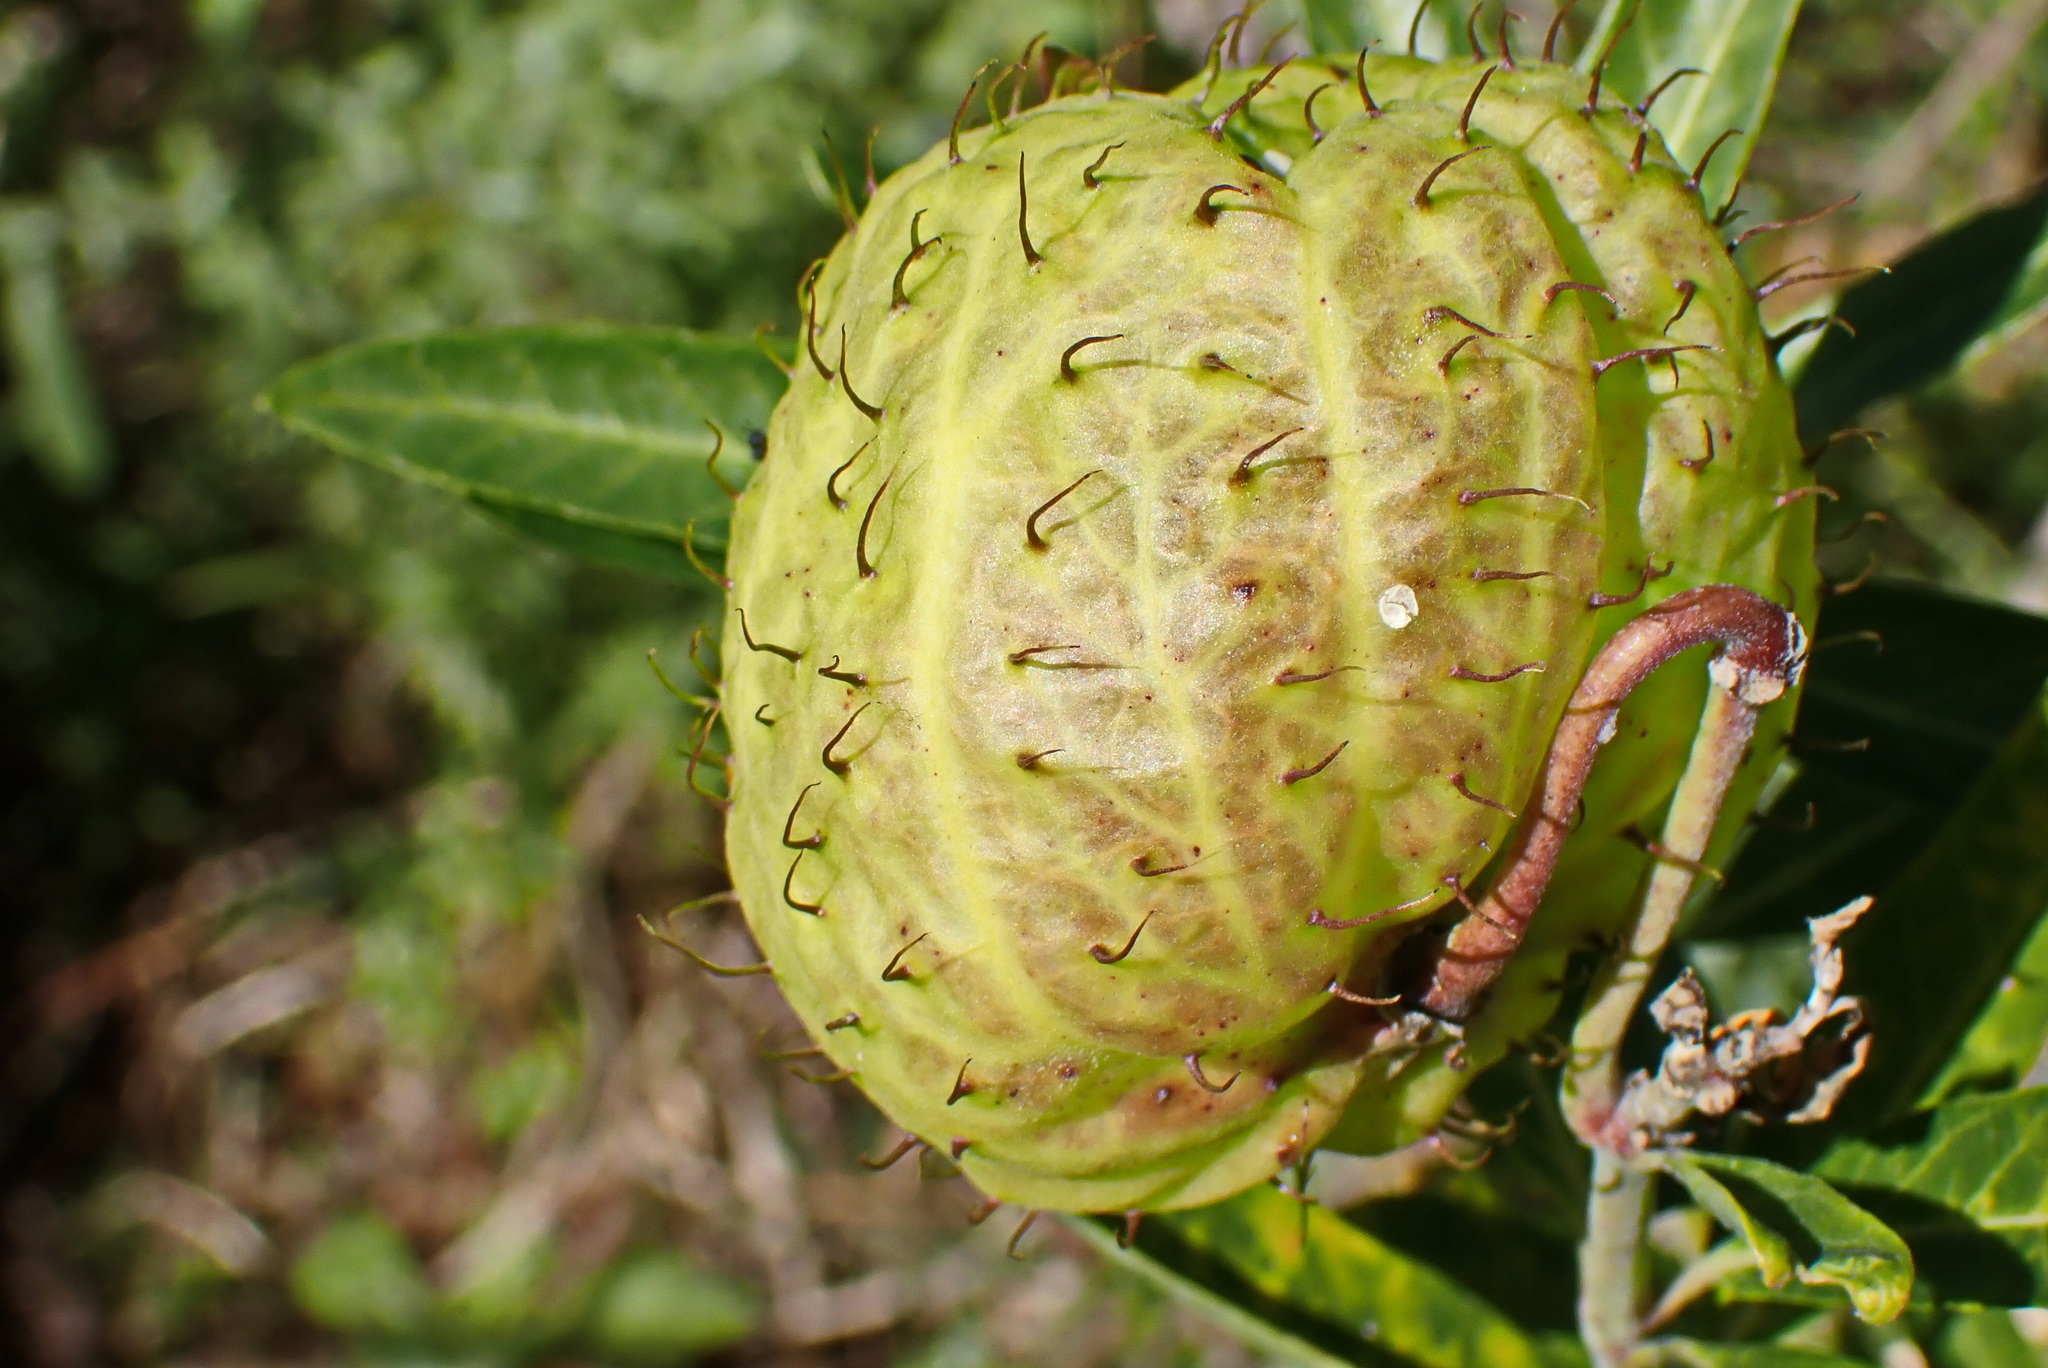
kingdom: Plantae
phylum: Tracheophyta
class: Magnoliopsida
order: Gentianales
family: Apocynaceae
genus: Gomphocarpus
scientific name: Gomphocarpus physocarpus
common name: Balloon cotton bush
